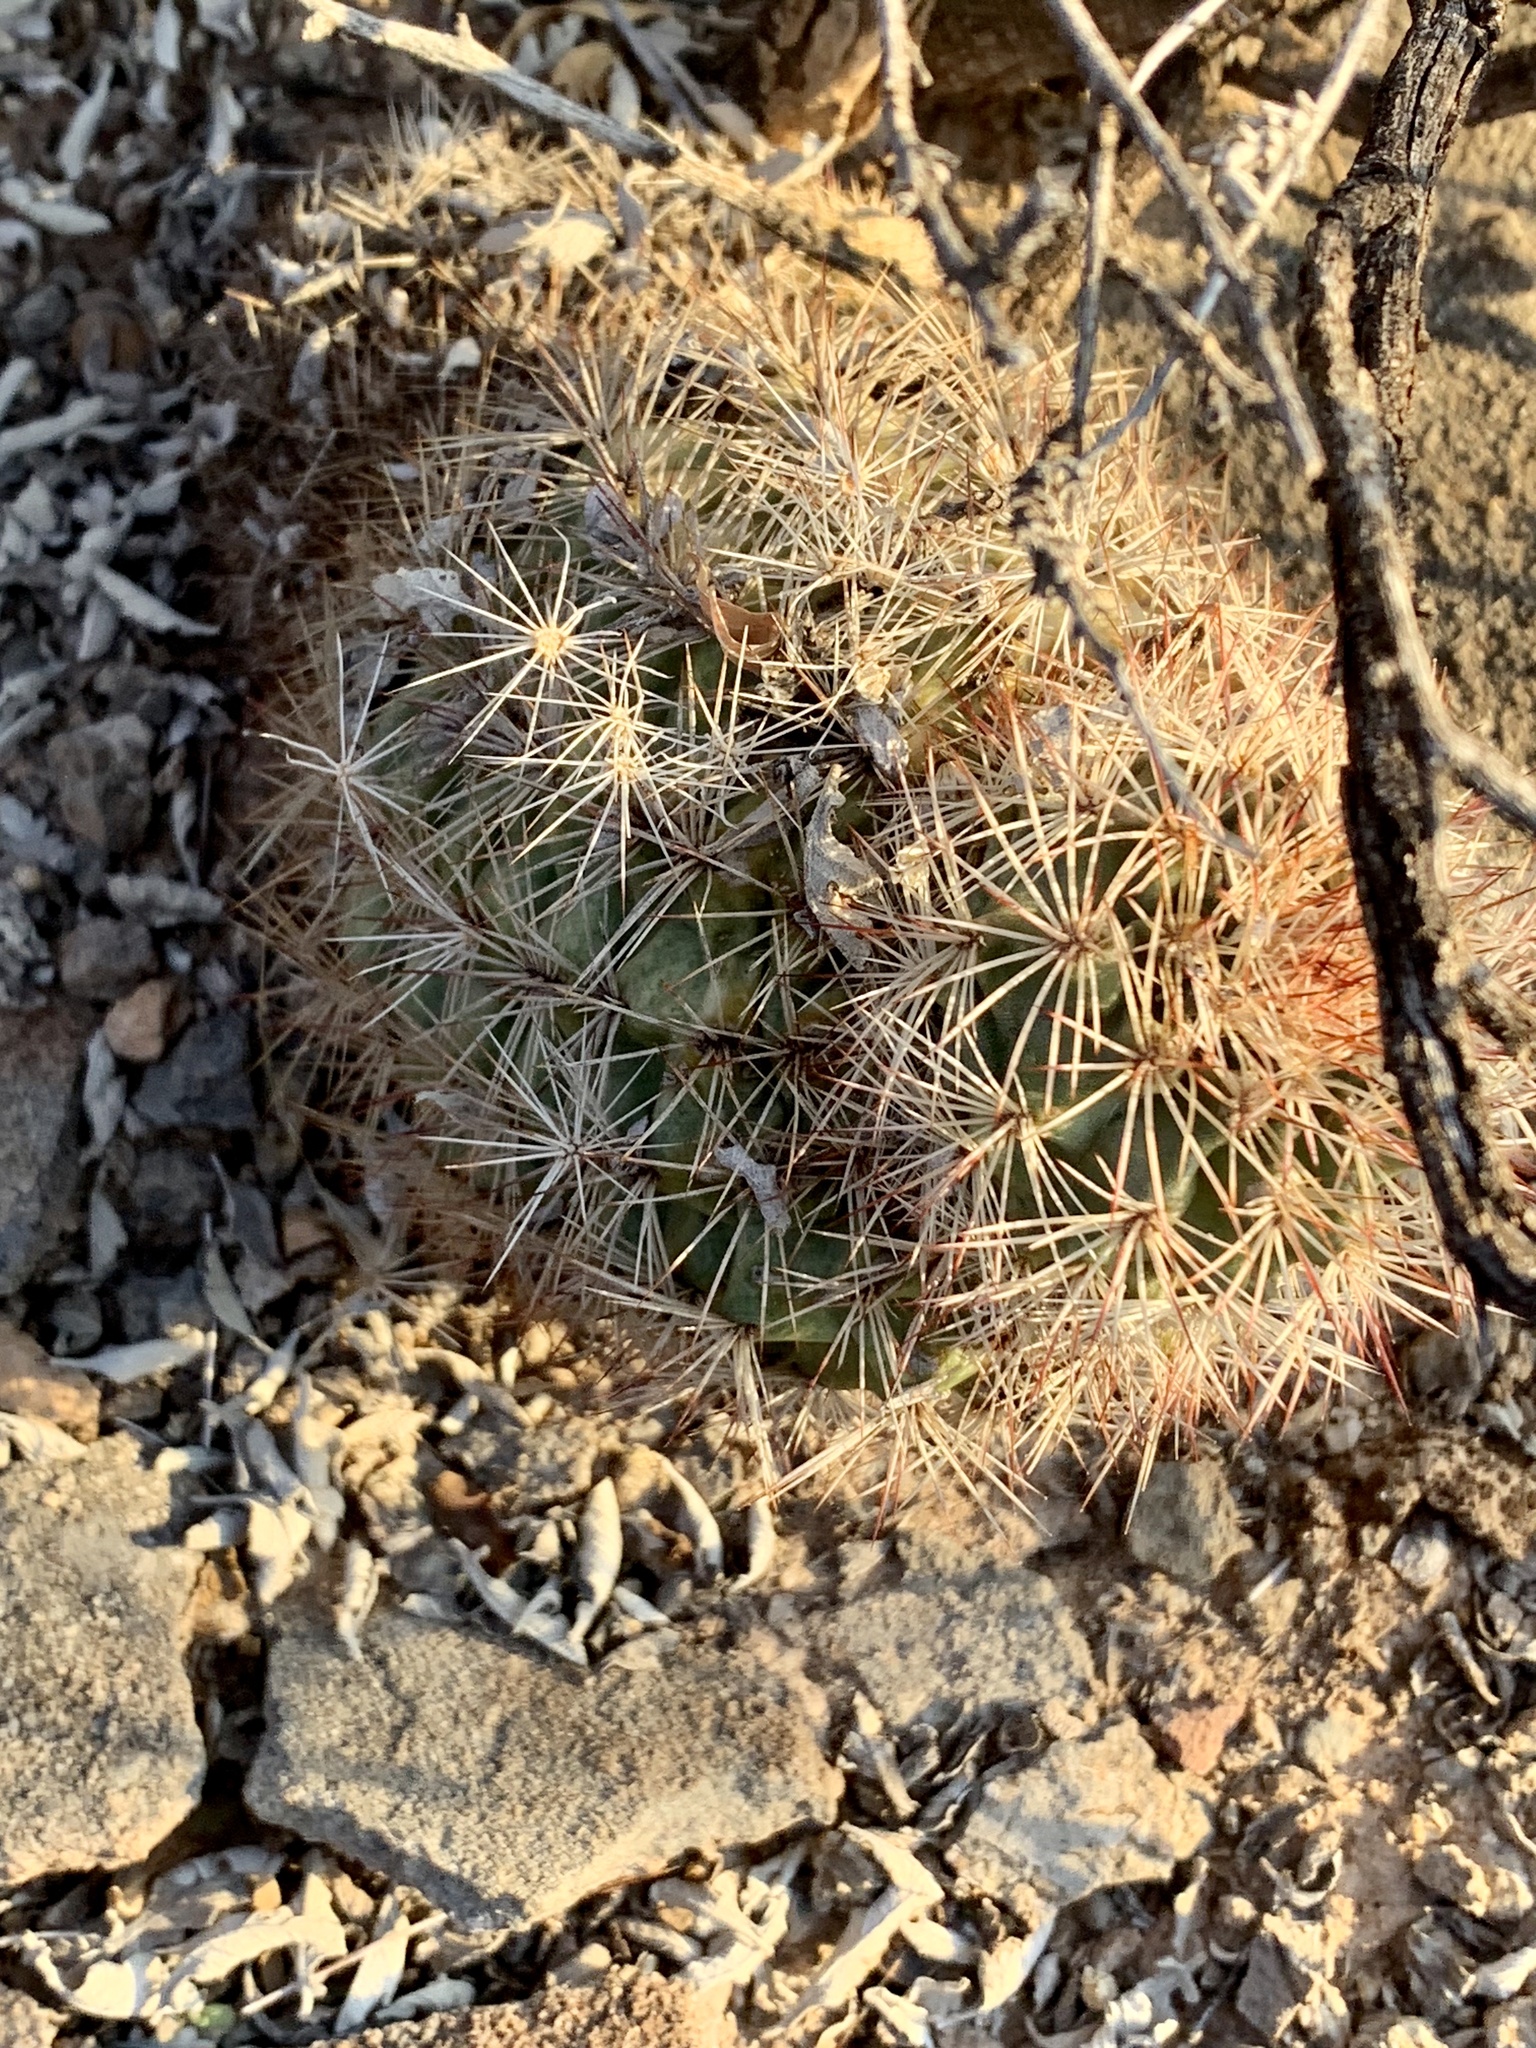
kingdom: Plantae
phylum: Tracheophyta
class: Magnoliopsida
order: Caryophyllales
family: Cactaceae
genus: Echinocereus
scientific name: Echinocereus dasyacanthus
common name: Spiny hedgehog cactus
